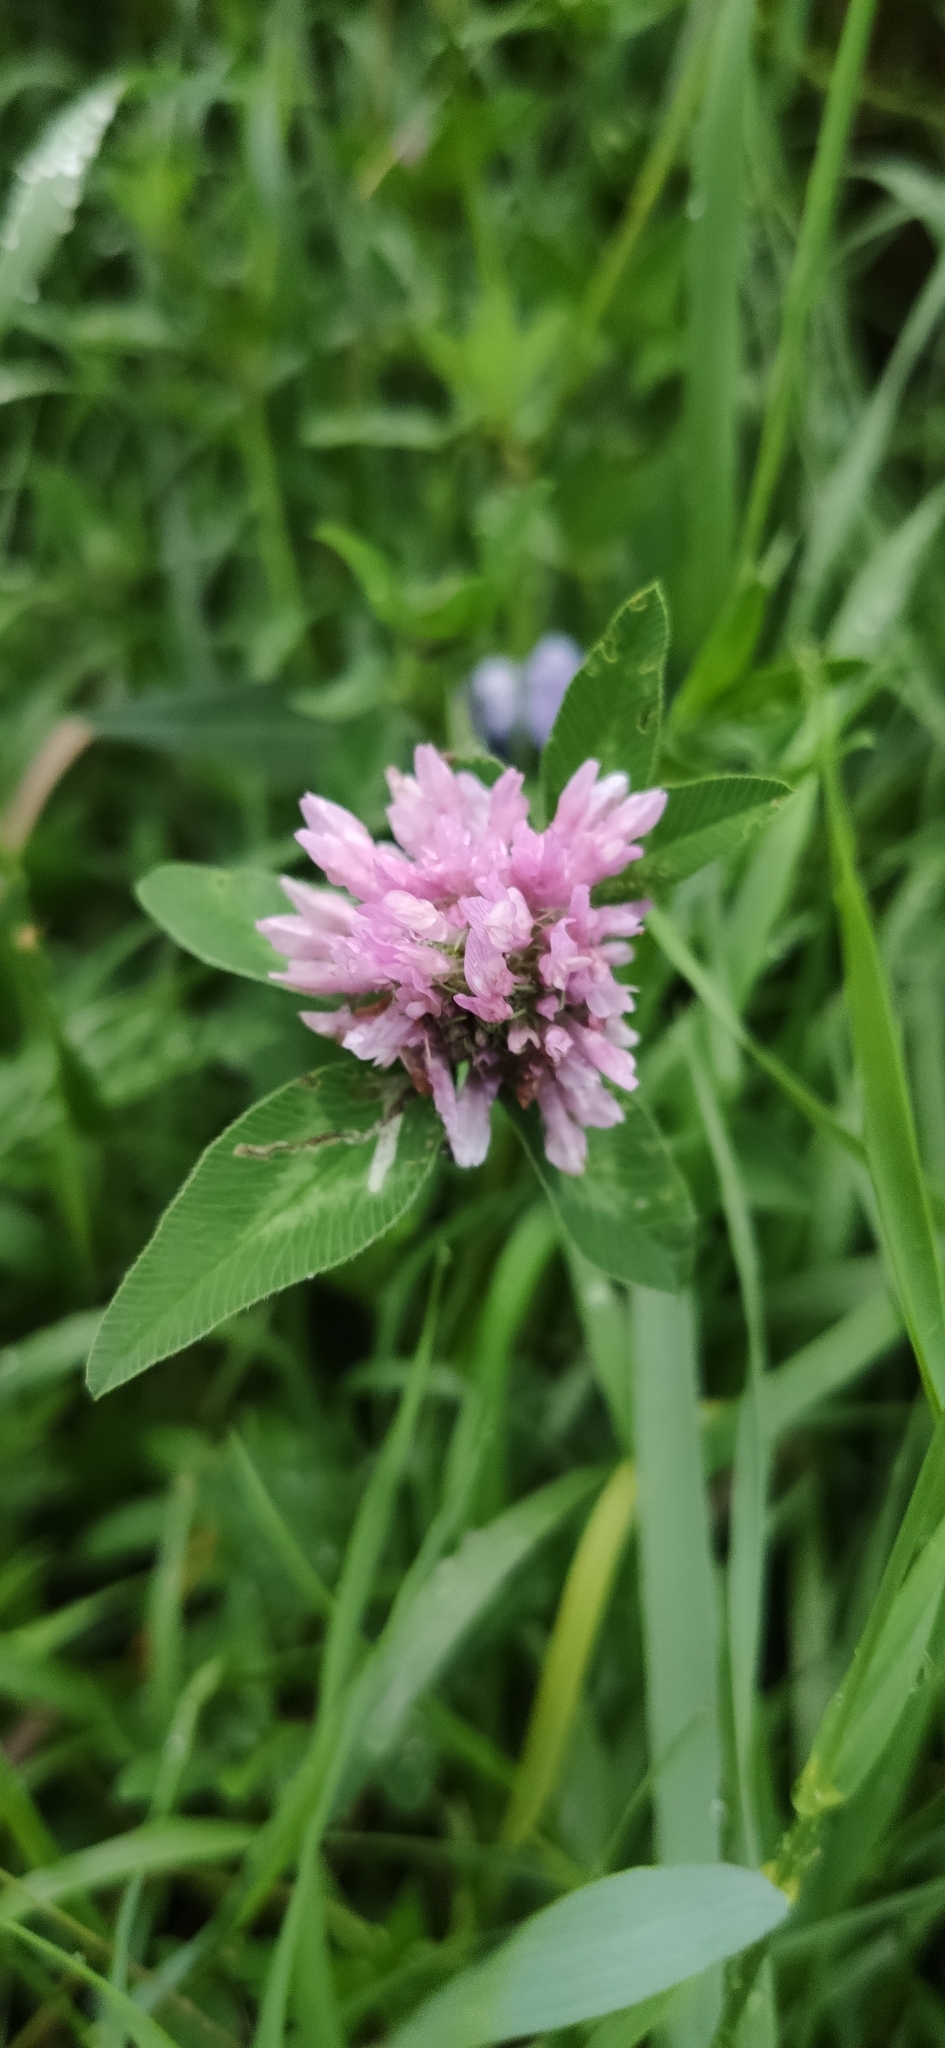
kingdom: Plantae
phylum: Tracheophyta
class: Magnoliopsida
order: Fabales
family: Fabaceae
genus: Trifolium
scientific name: Trifolium pratense
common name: Red clover
